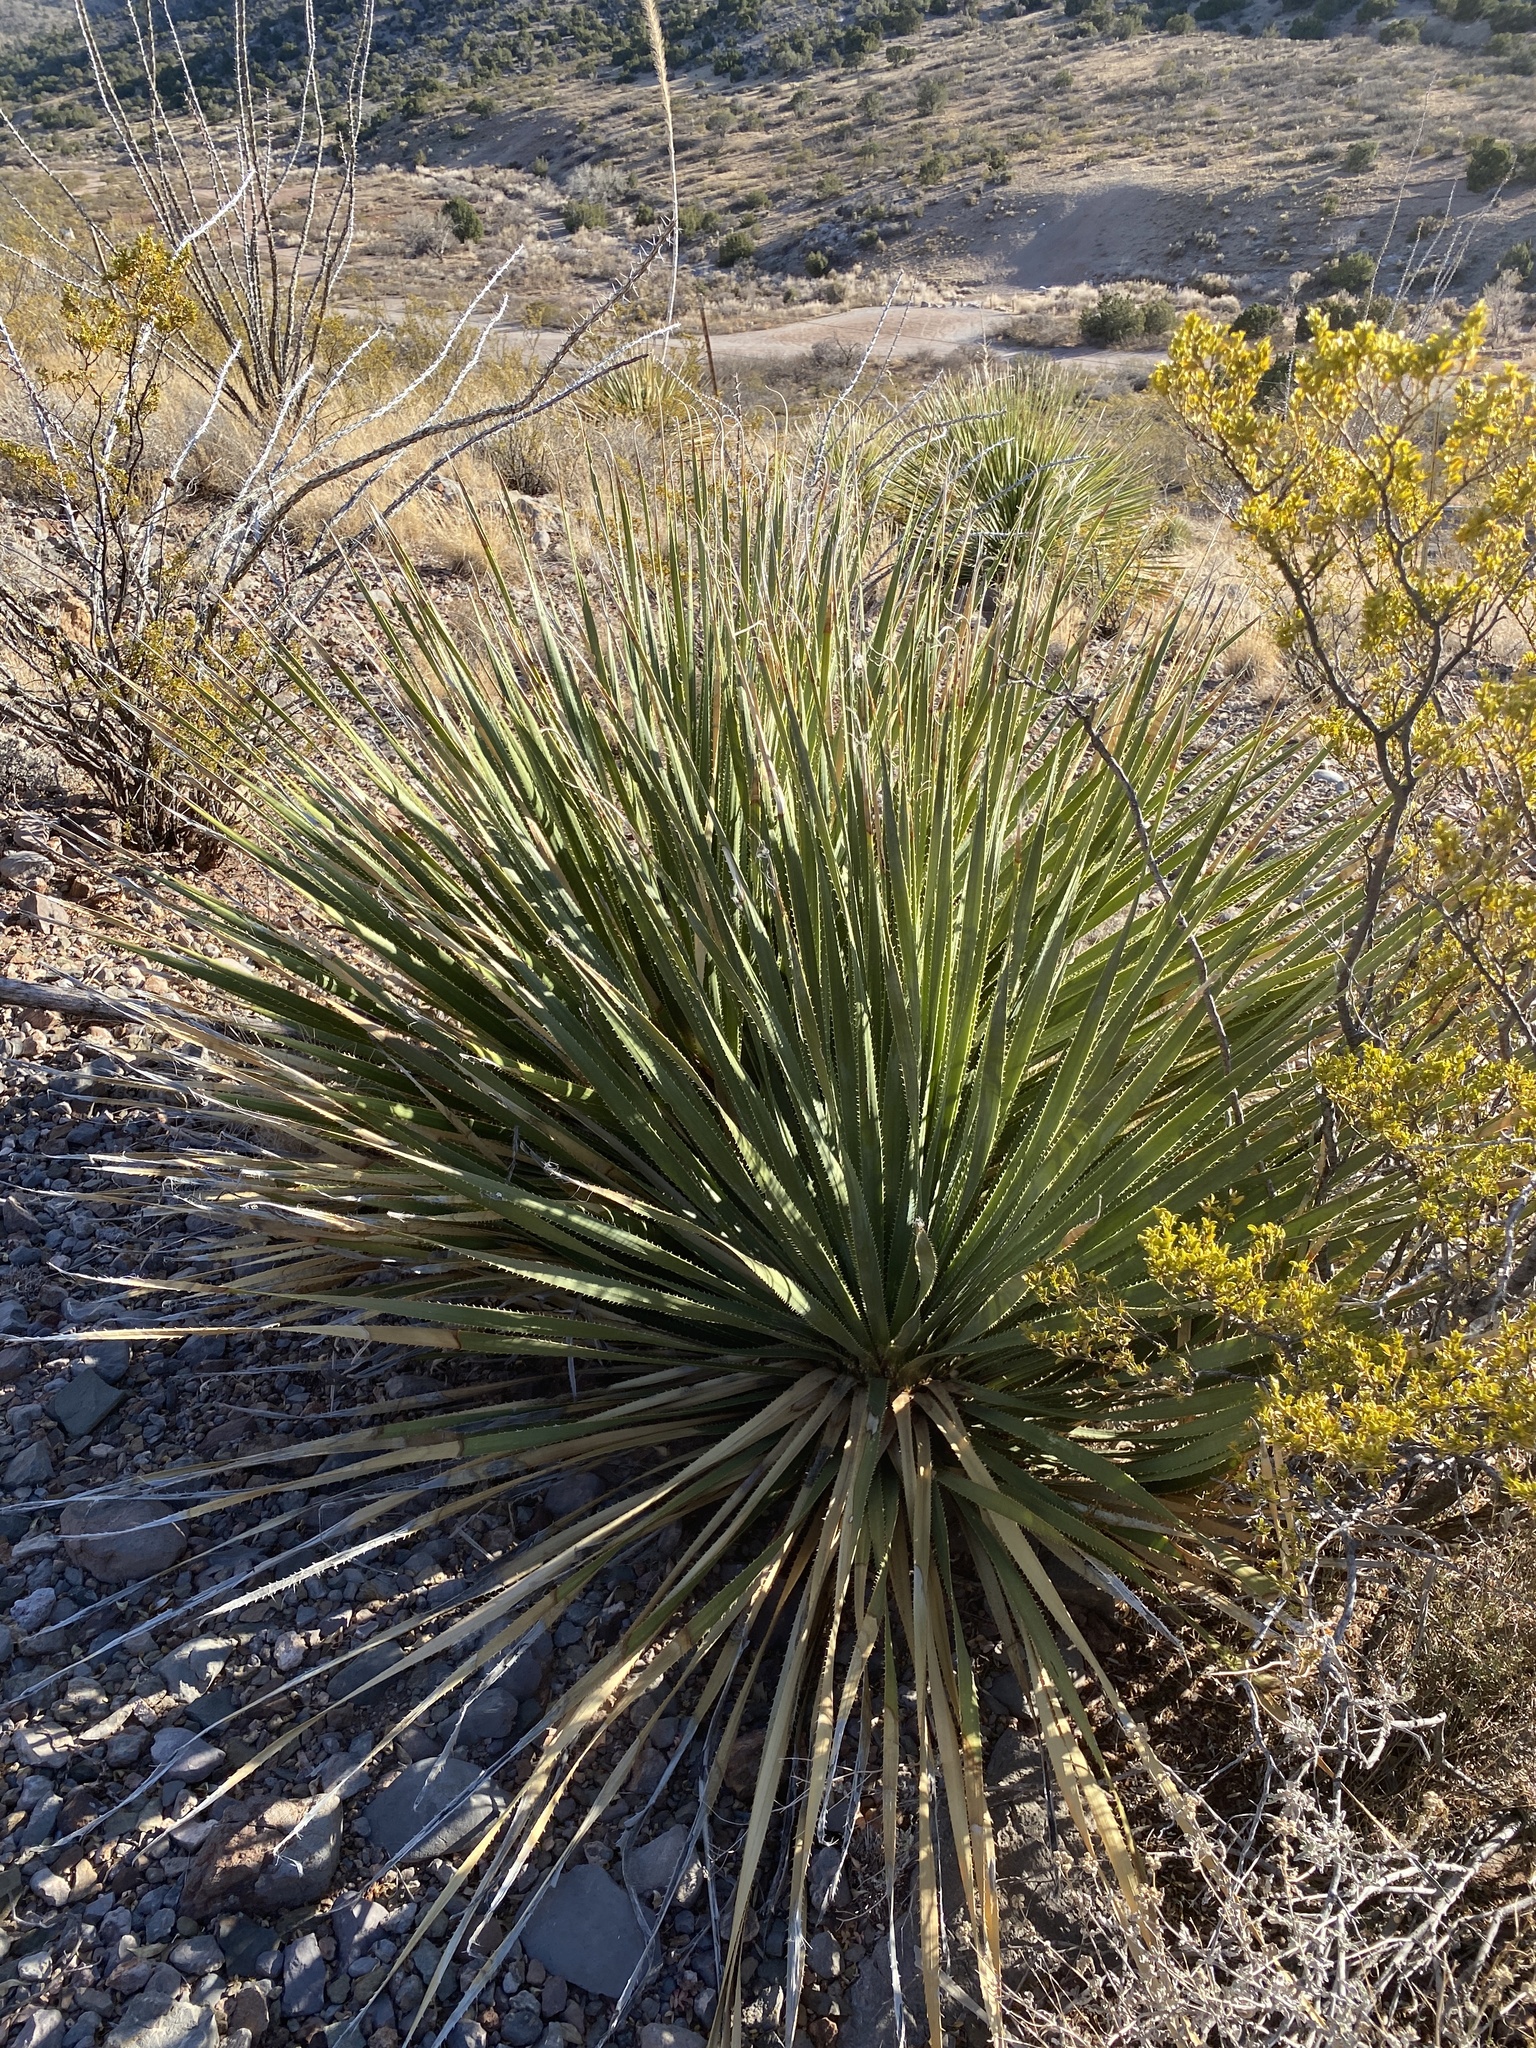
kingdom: Plantae
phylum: Tracheophyta
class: Liliopsida
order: Asparagales
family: Asparagaceae
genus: Dasylirion
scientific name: Dasylirion wheeleri
